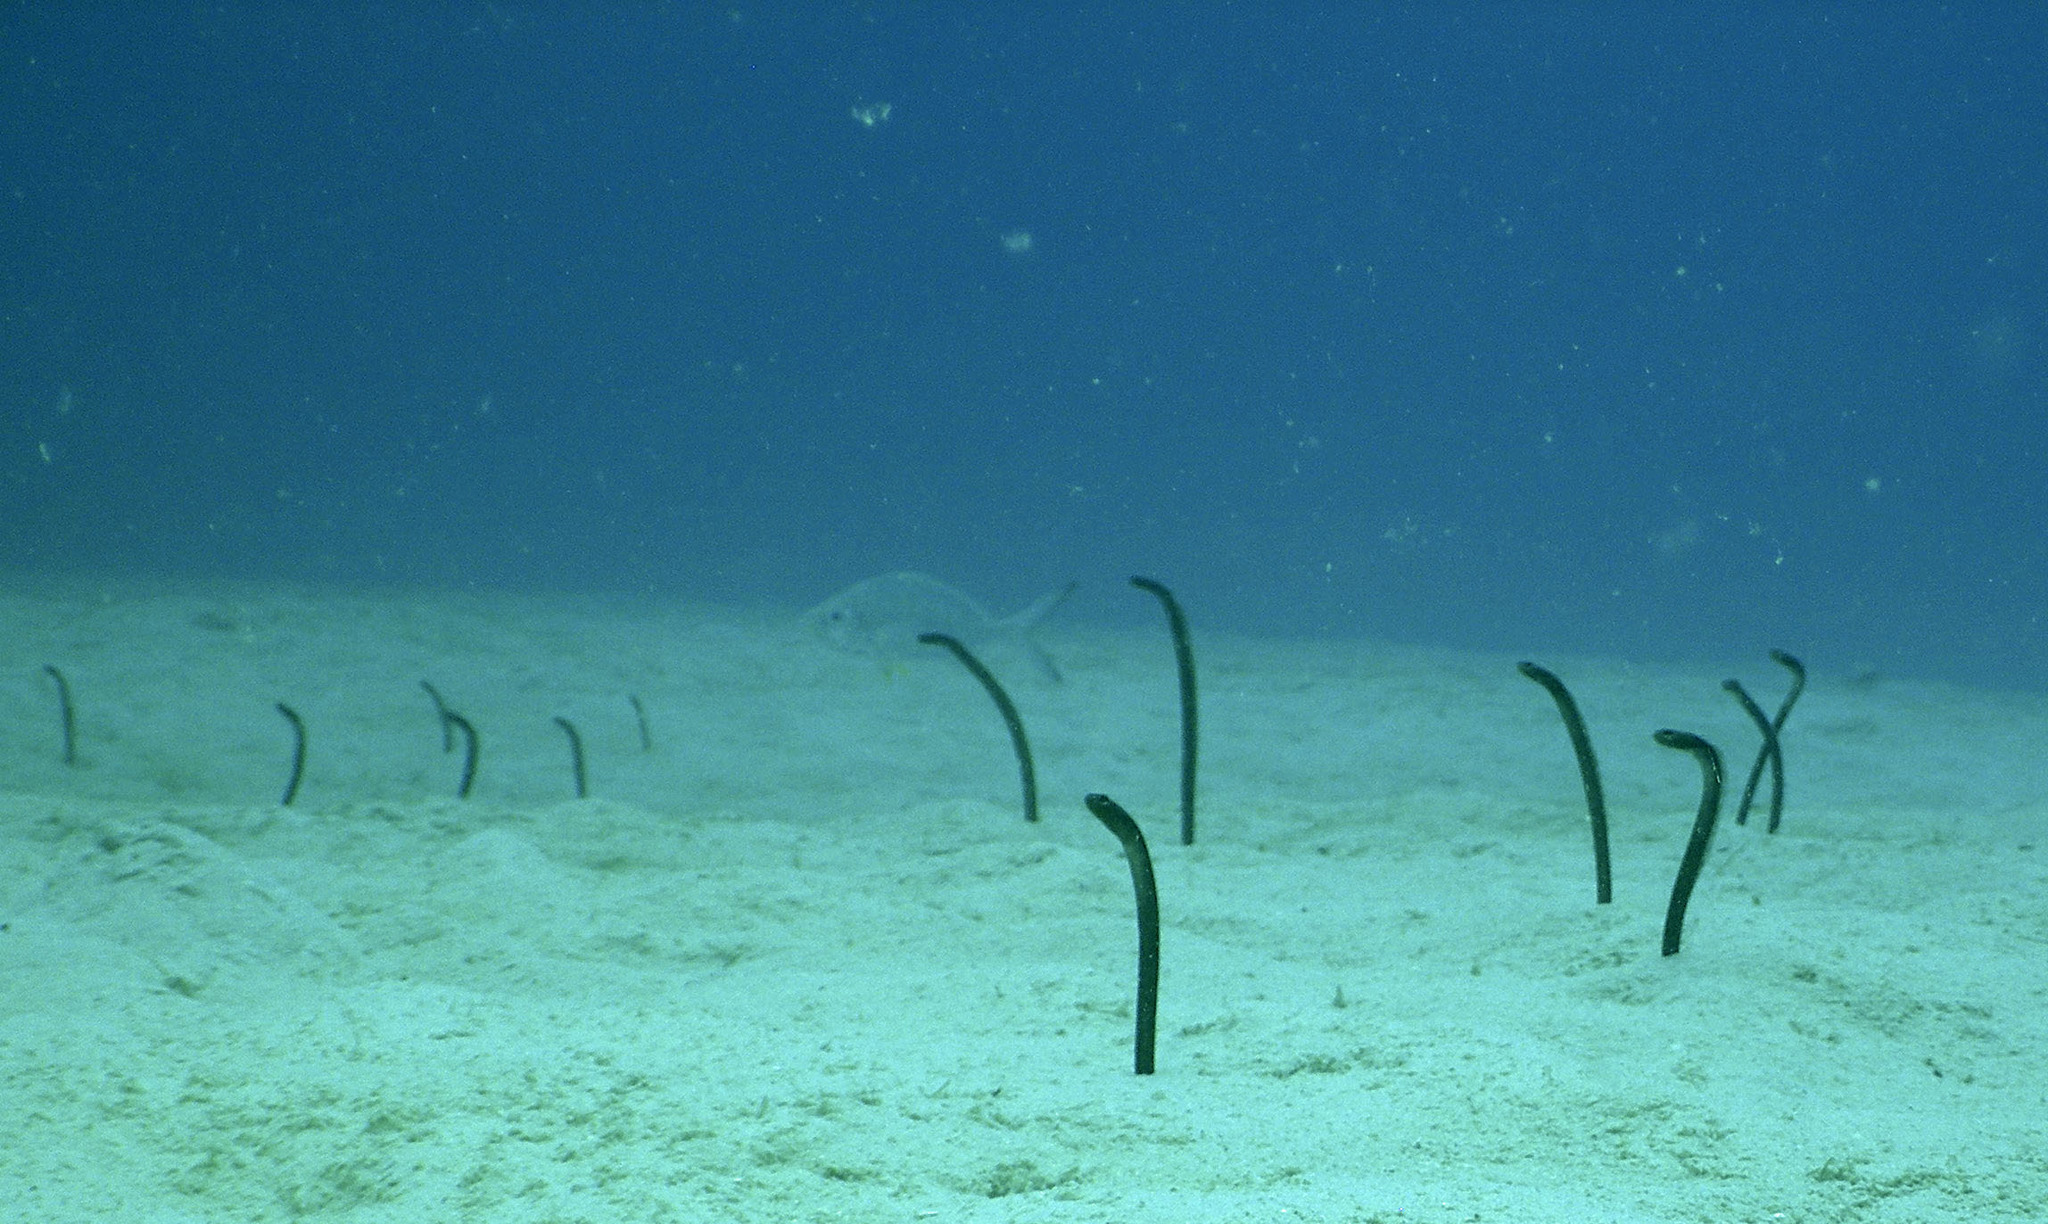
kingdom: Animalia
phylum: Chordata
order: Anguilliformes
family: Congridae
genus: Heteroconger
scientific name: Heteroconger longissimus
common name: Garden eel
